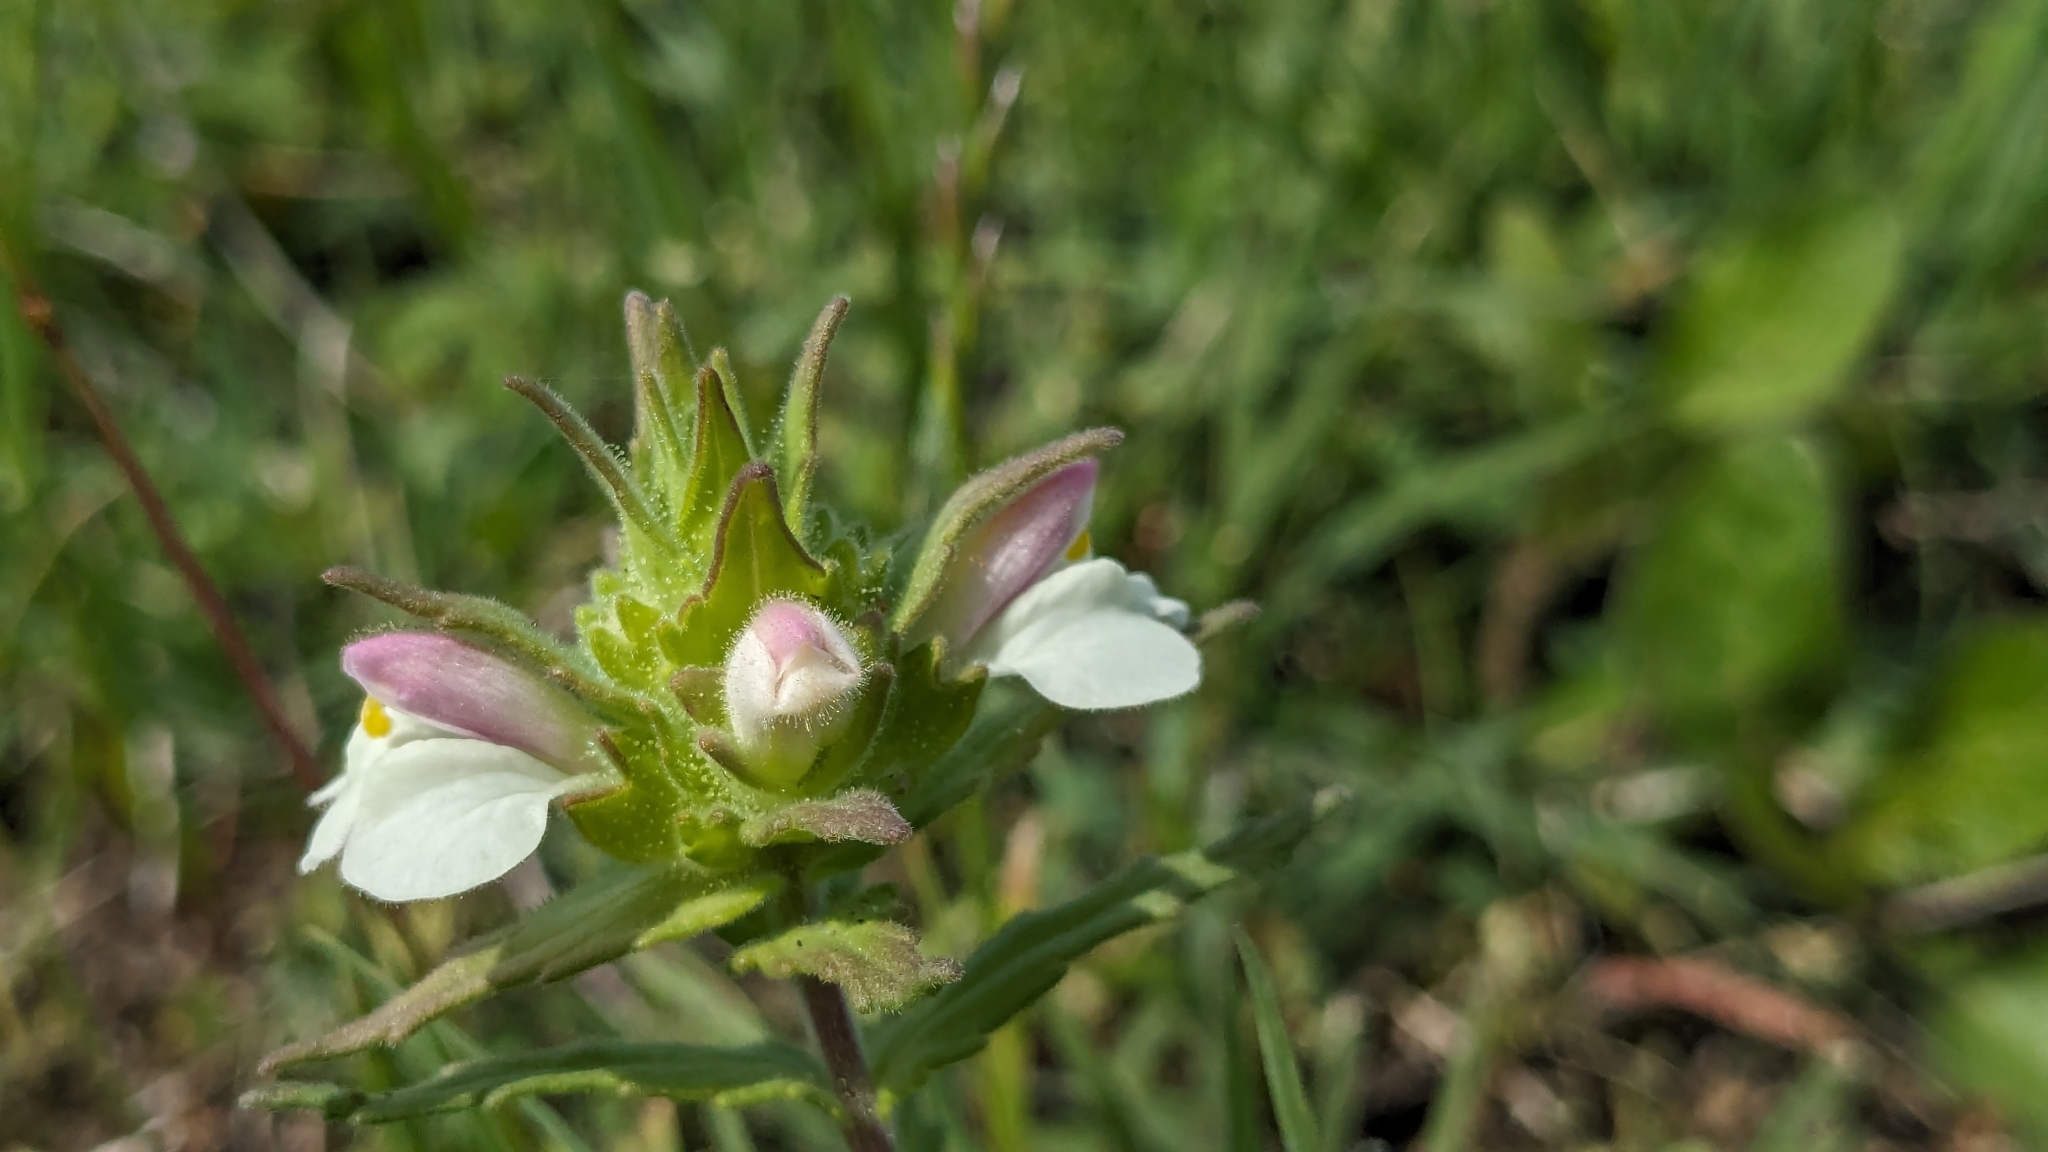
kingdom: Plantae
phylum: Tracheophyta
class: Magnoliopsida
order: Lamiales
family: Orobanchaceae
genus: Bellardia
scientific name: Bellardia trixago
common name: Mediterranean lineseed
